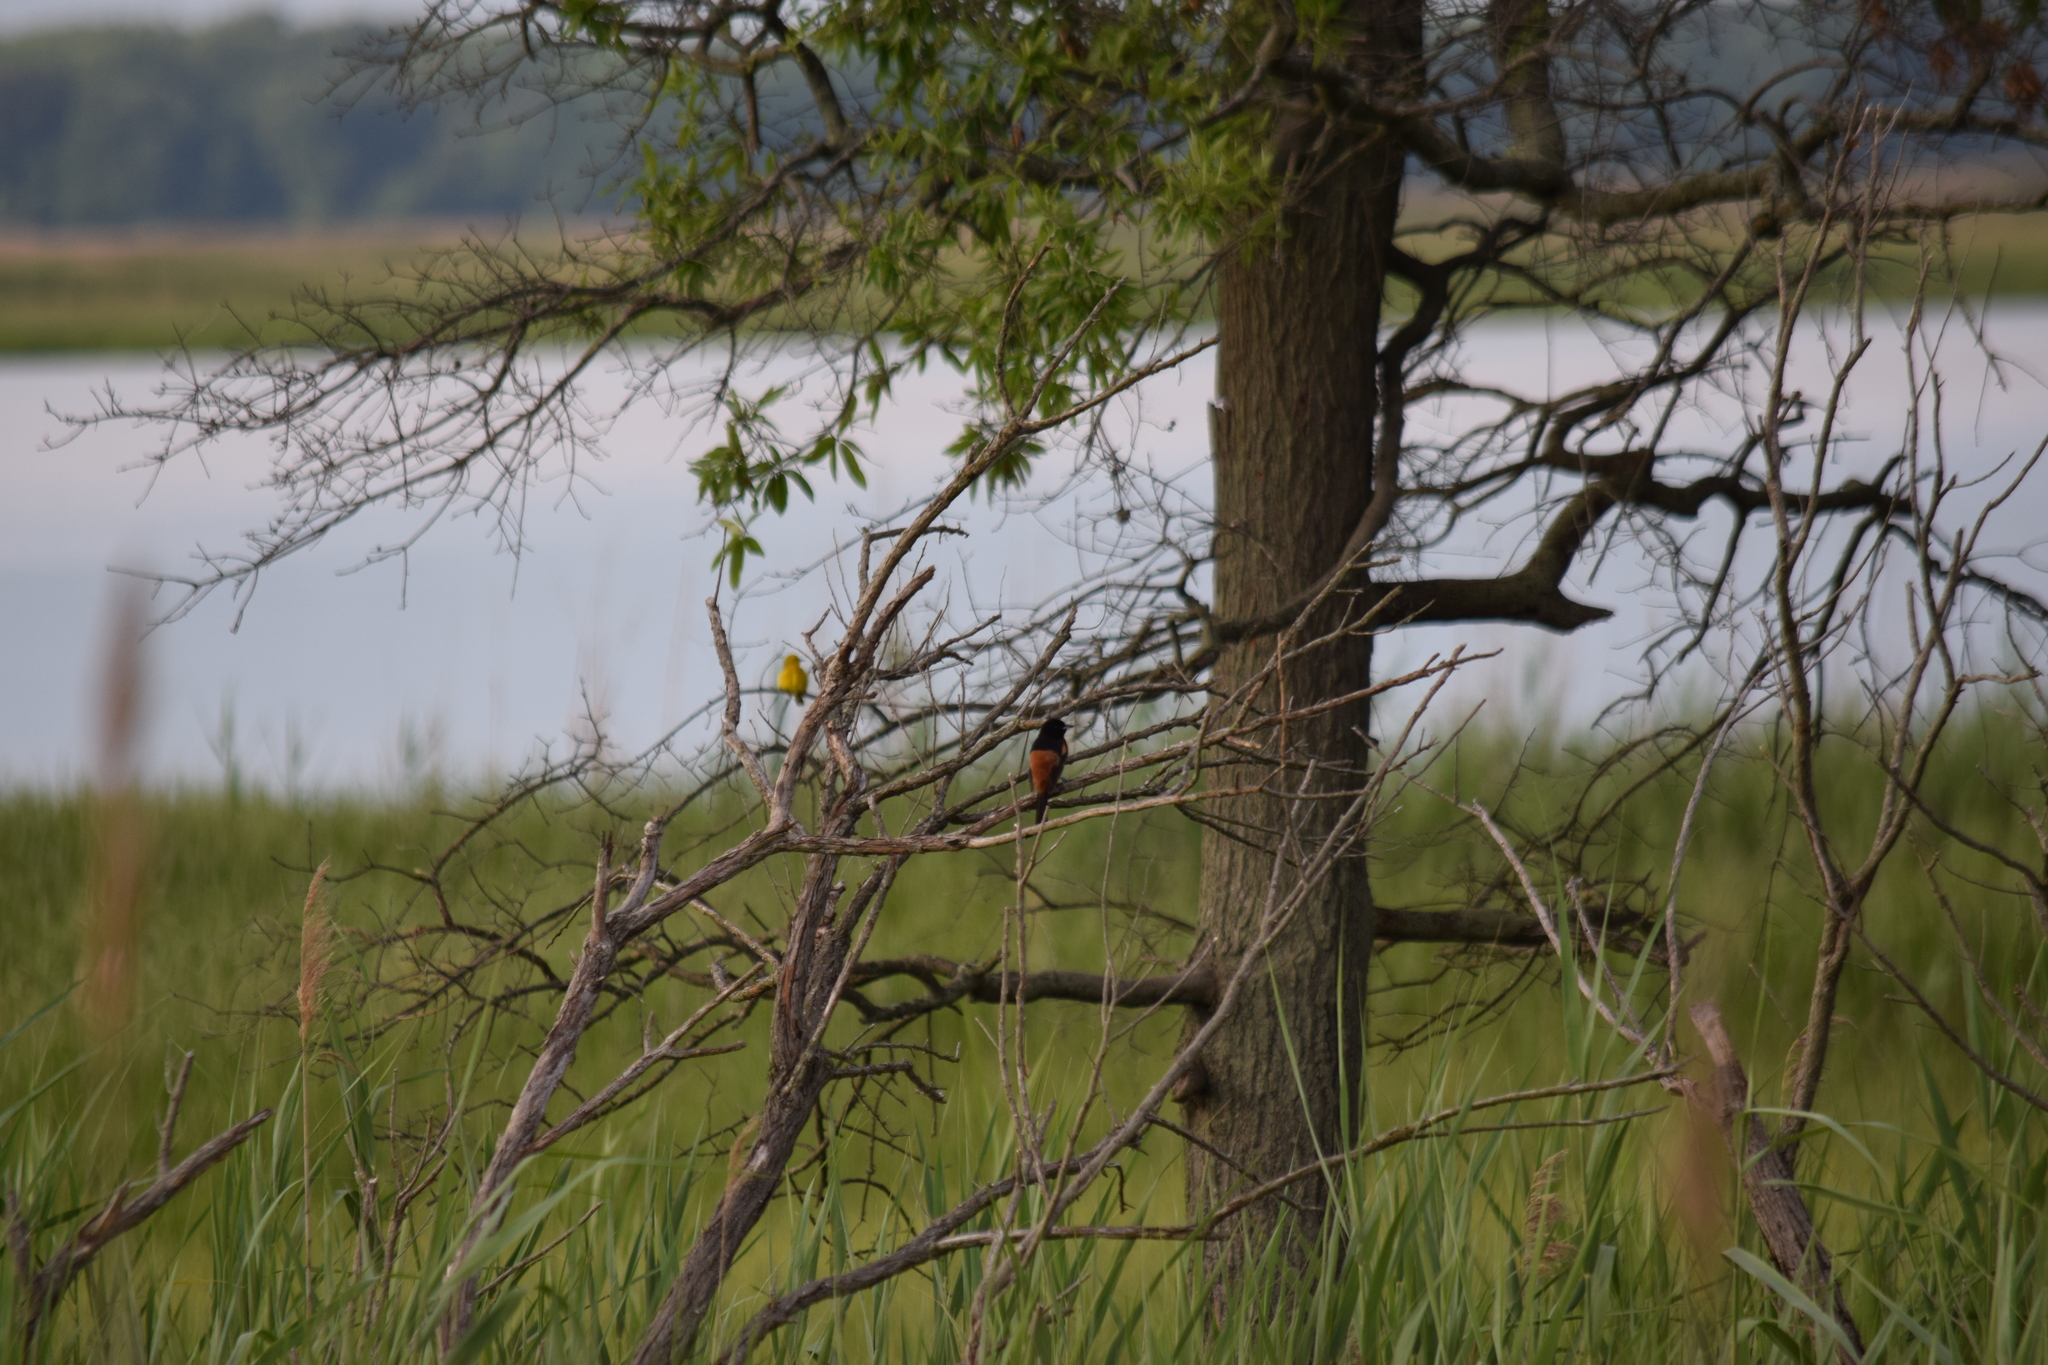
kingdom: Animalia
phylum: Chordata
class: Aves
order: Passeriformes
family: Icteridae
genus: Icterus
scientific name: Icterus spurius
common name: Orchard oriole
